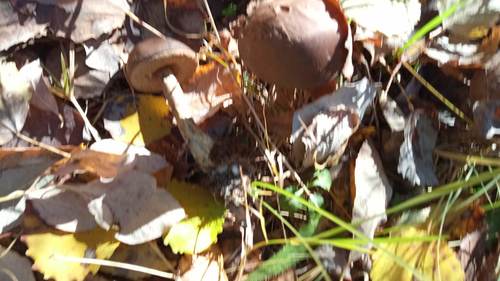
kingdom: Fungi
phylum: Basidiomycota
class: Agaricomycetes
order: Boletales
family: Boletaceae
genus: Leccinum
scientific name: Leccinum
